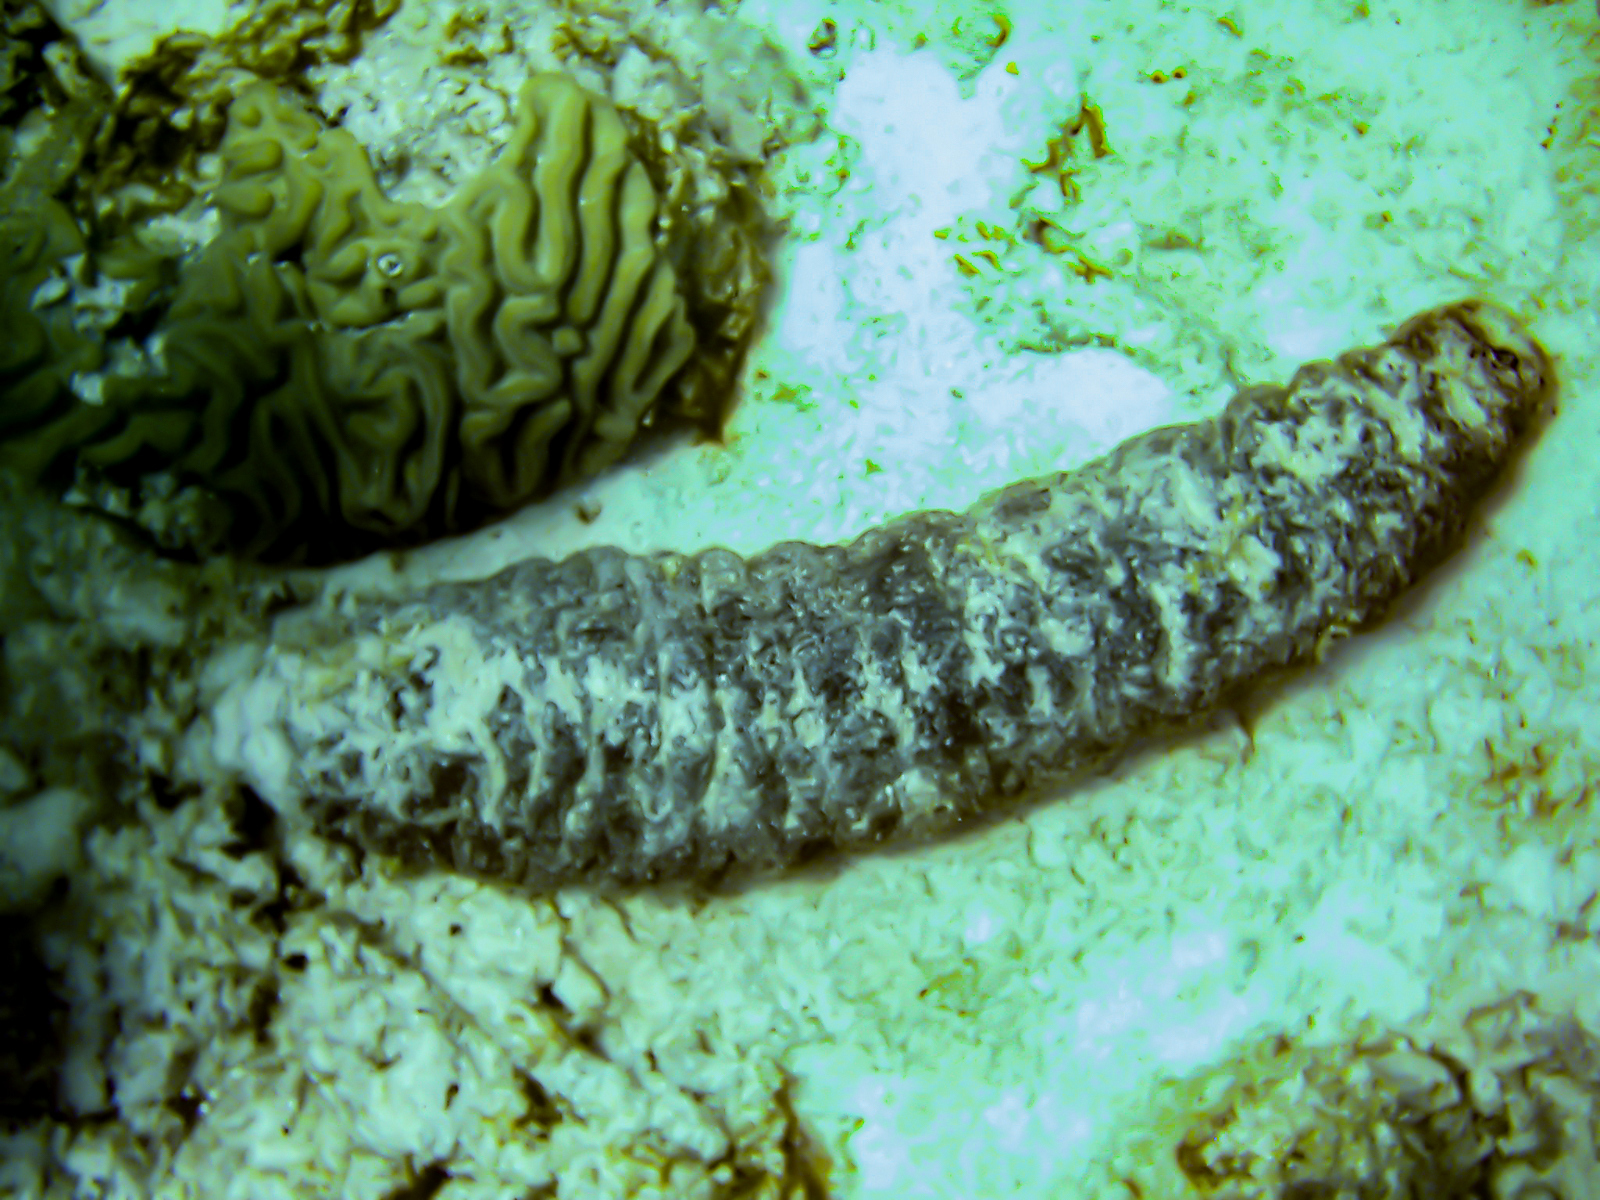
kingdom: Animalia
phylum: Echinodermata
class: Holothuroidea
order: Holothuriida
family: Holothuriidae
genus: Holothuria
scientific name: Holothuria mexicana
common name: Donkey dung sea cucumber
